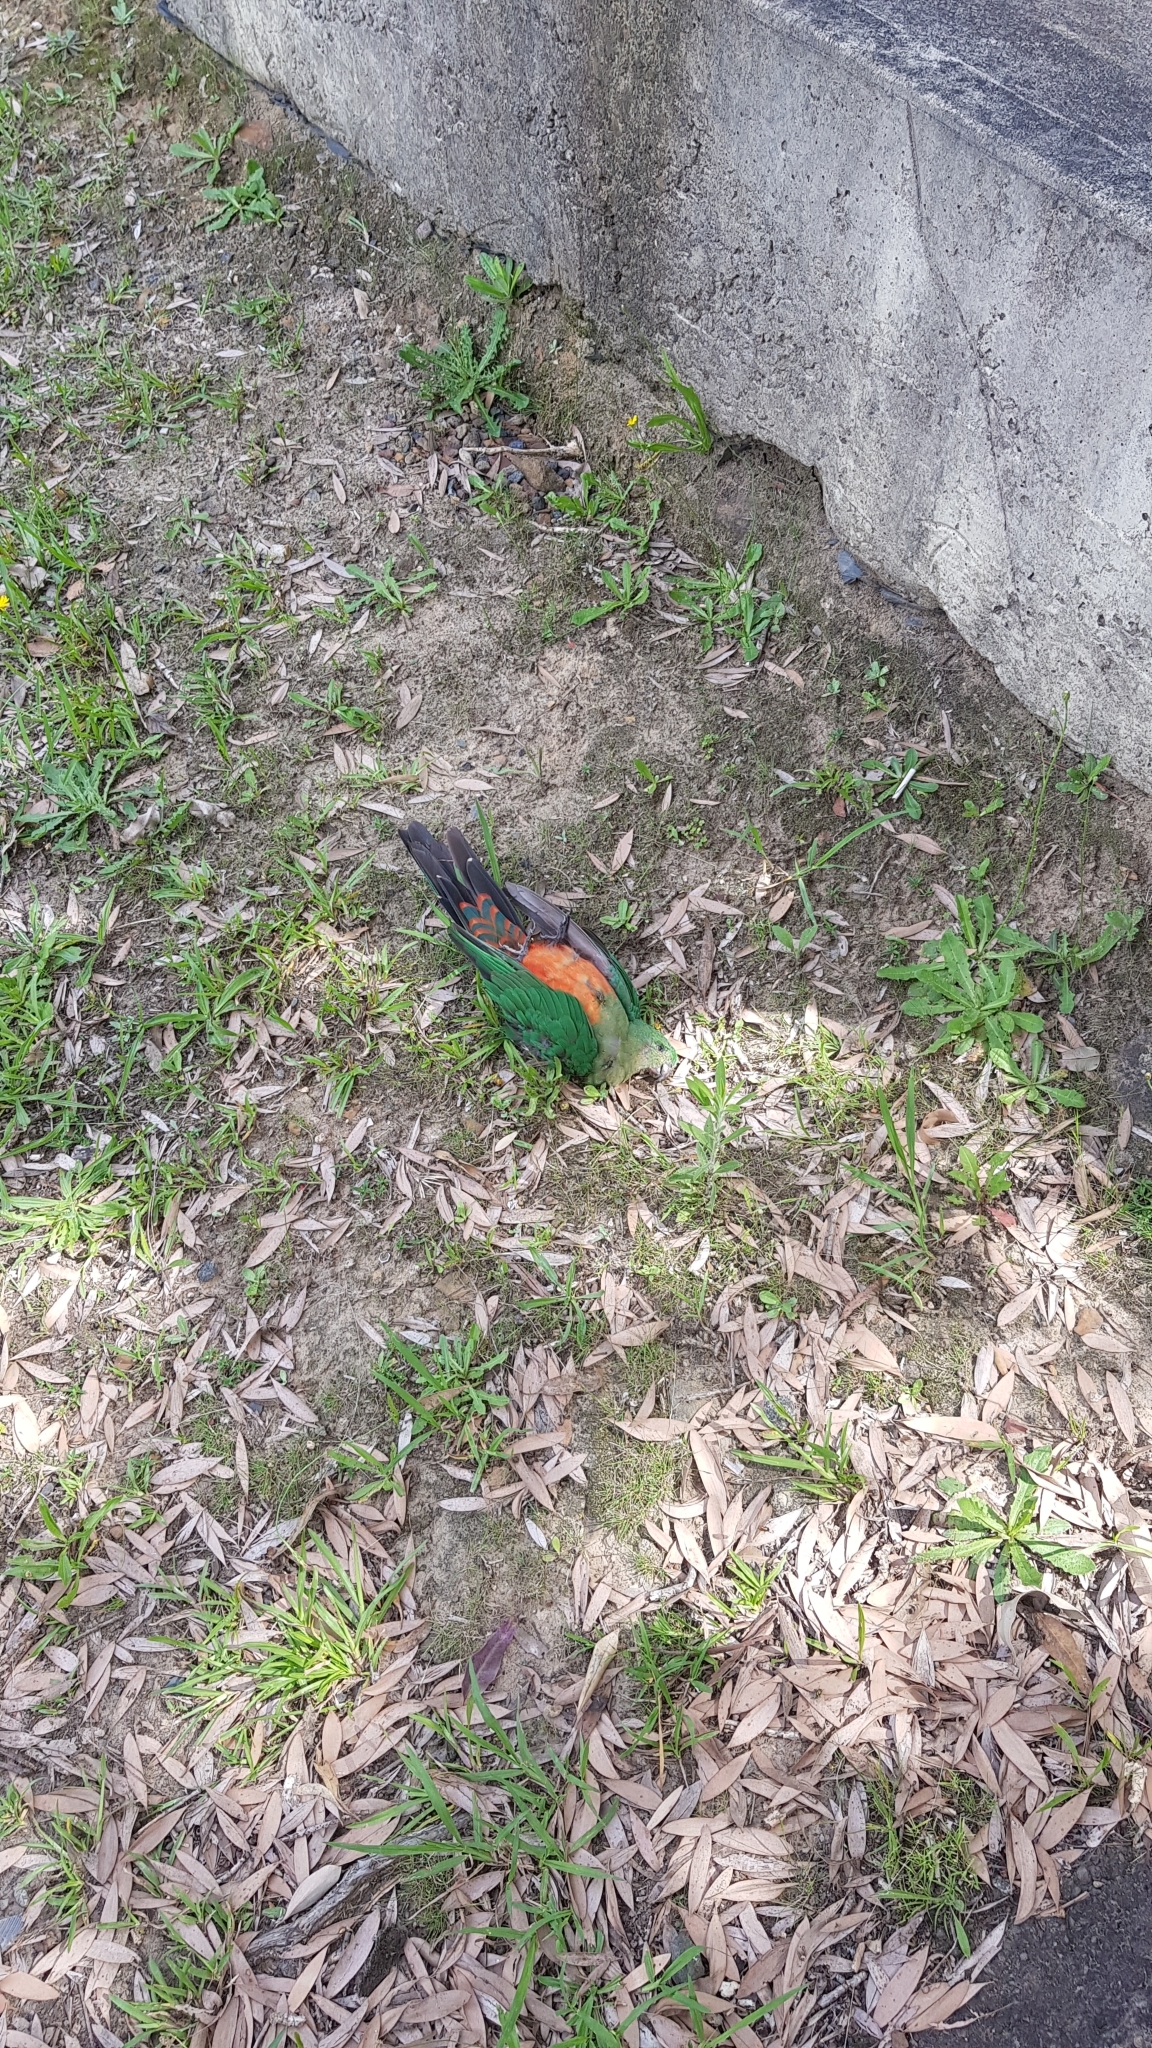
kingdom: Animalia
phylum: Chordata
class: Aves
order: Psittaciformes
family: Psittacidae
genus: Alisterus
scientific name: Alisterus scapularis
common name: Australian king parrot
